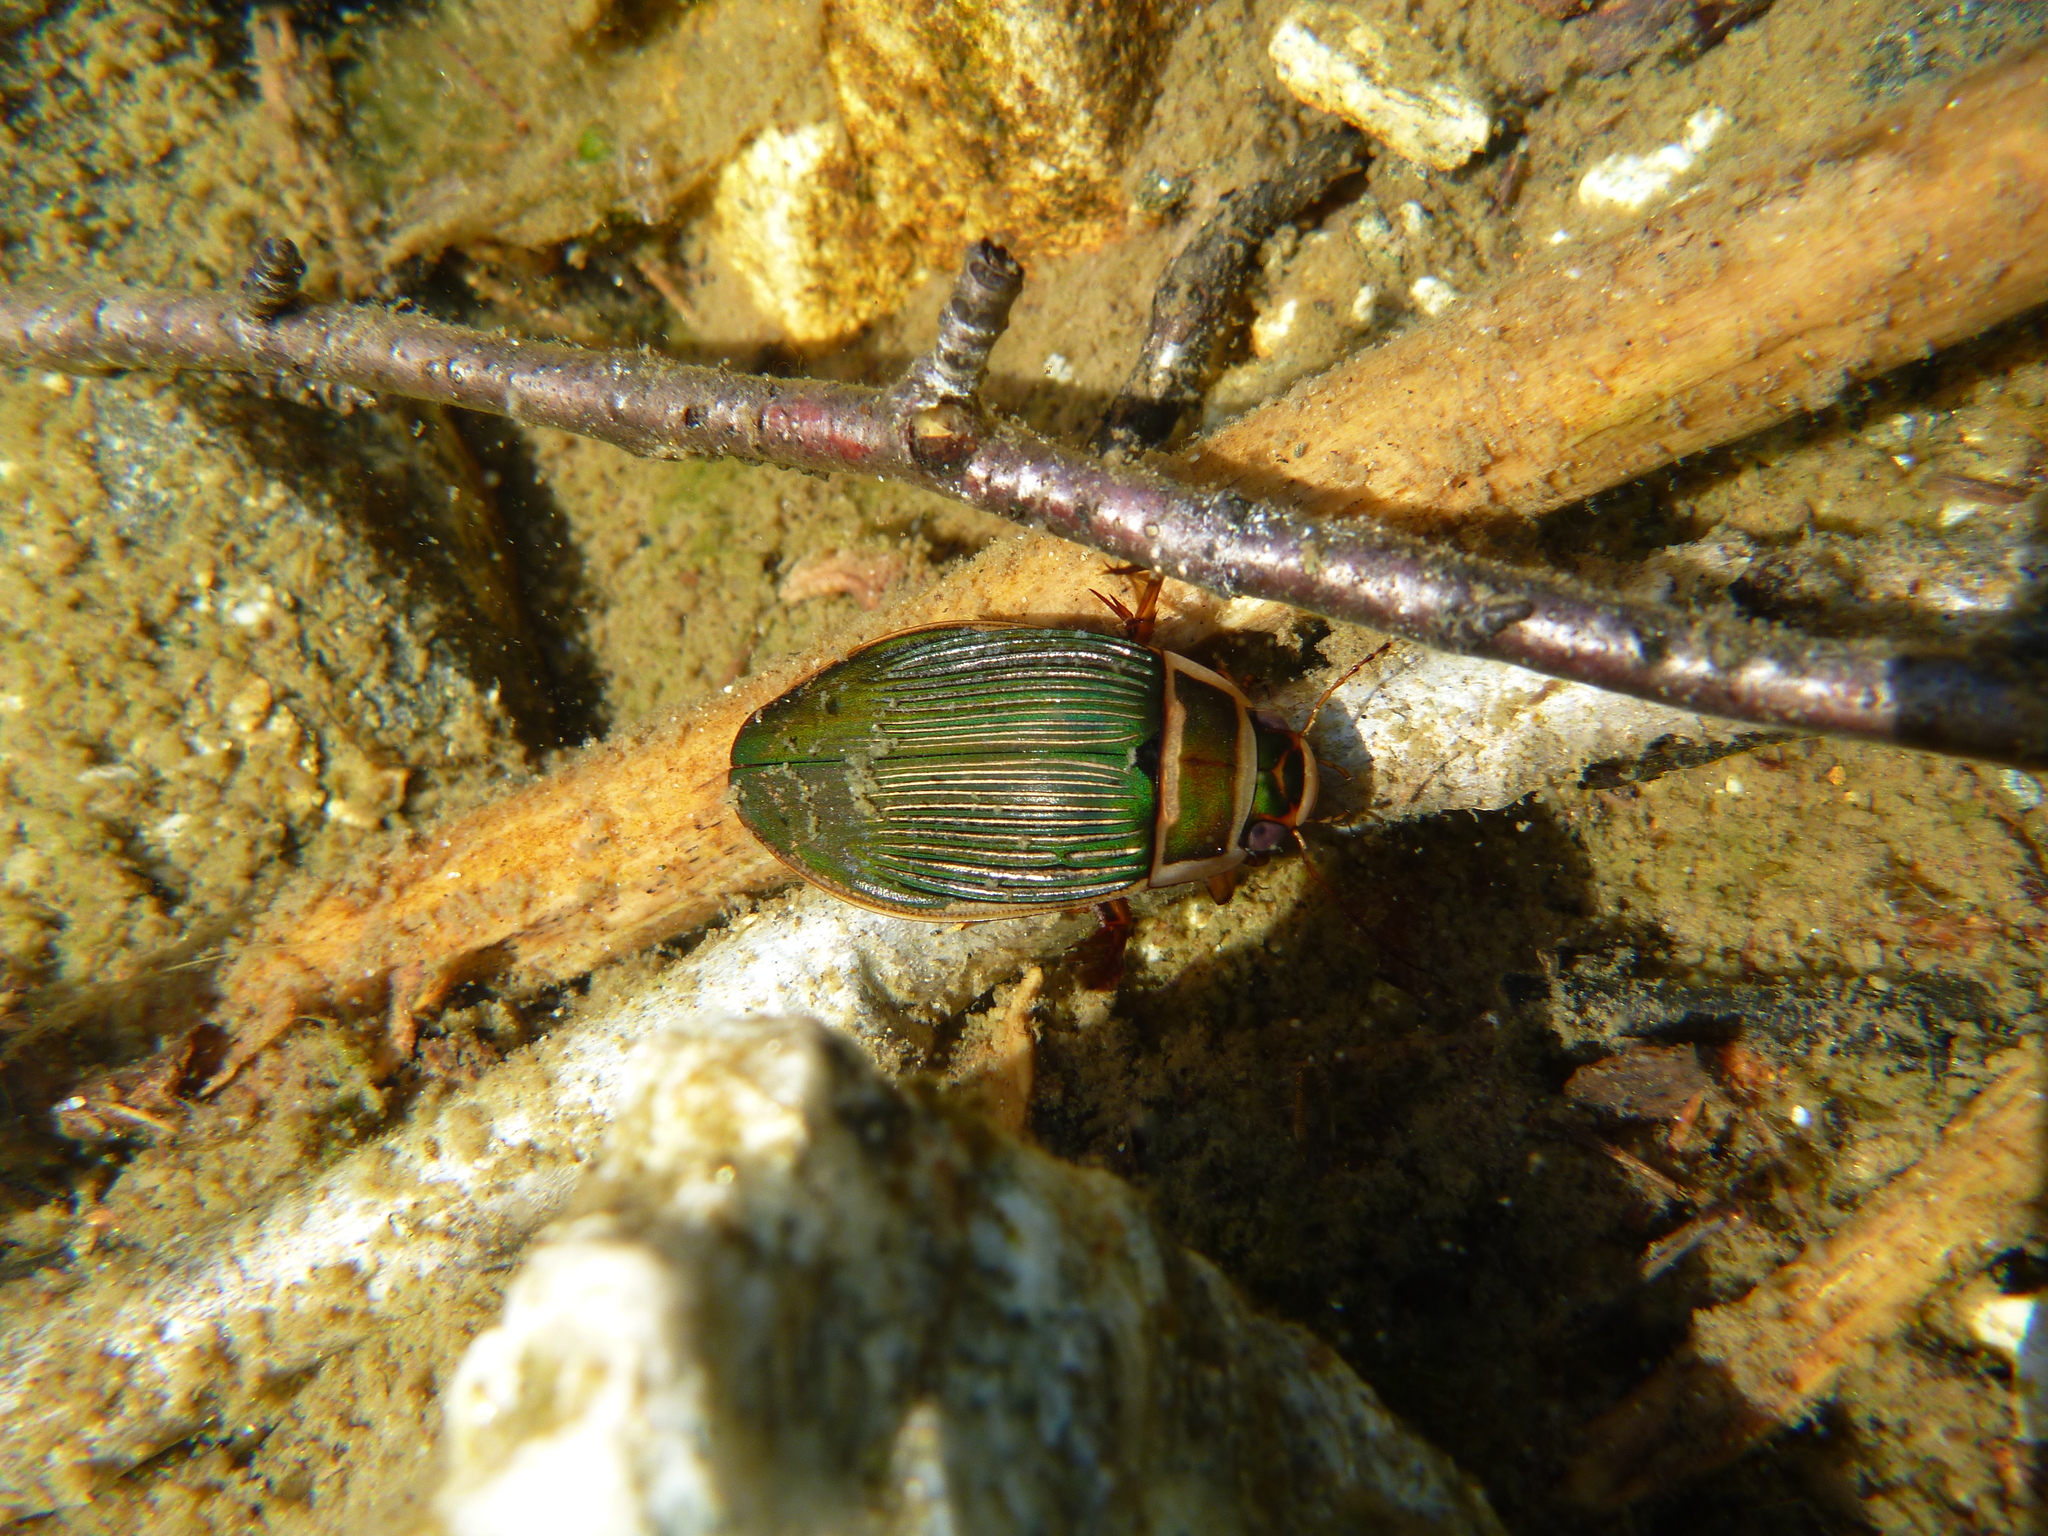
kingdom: Animalia
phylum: Arthropoda
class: Insecta
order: Coleoptera
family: Dytiscidae
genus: Dytiscus
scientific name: Dytiscus marginalis
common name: Great water beetle
